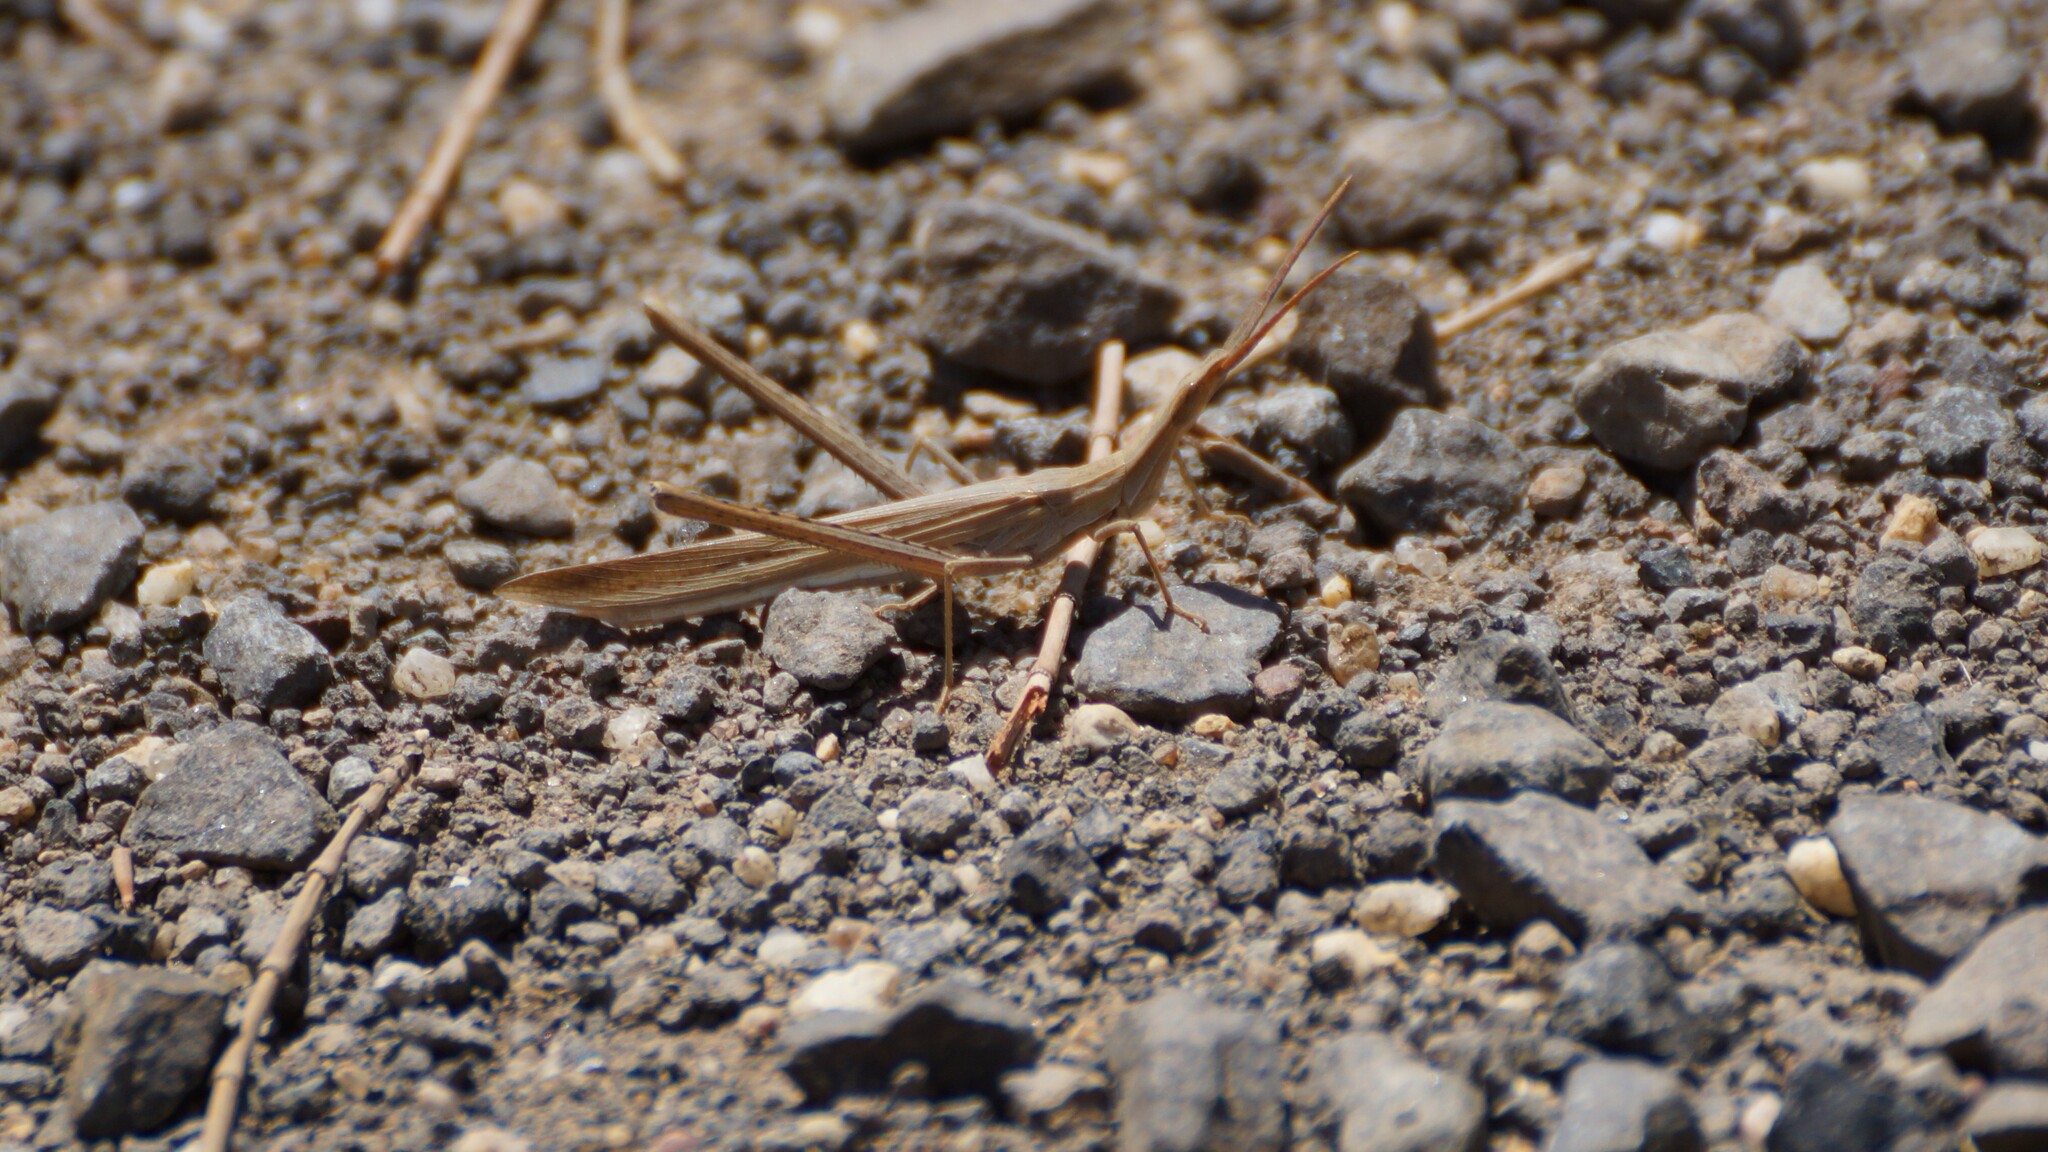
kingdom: Animalia
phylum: Arthropoda
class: Insecta
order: Orthoptera
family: Acrididae
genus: Acrida
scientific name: Acrida conica
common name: Giant green slantface
